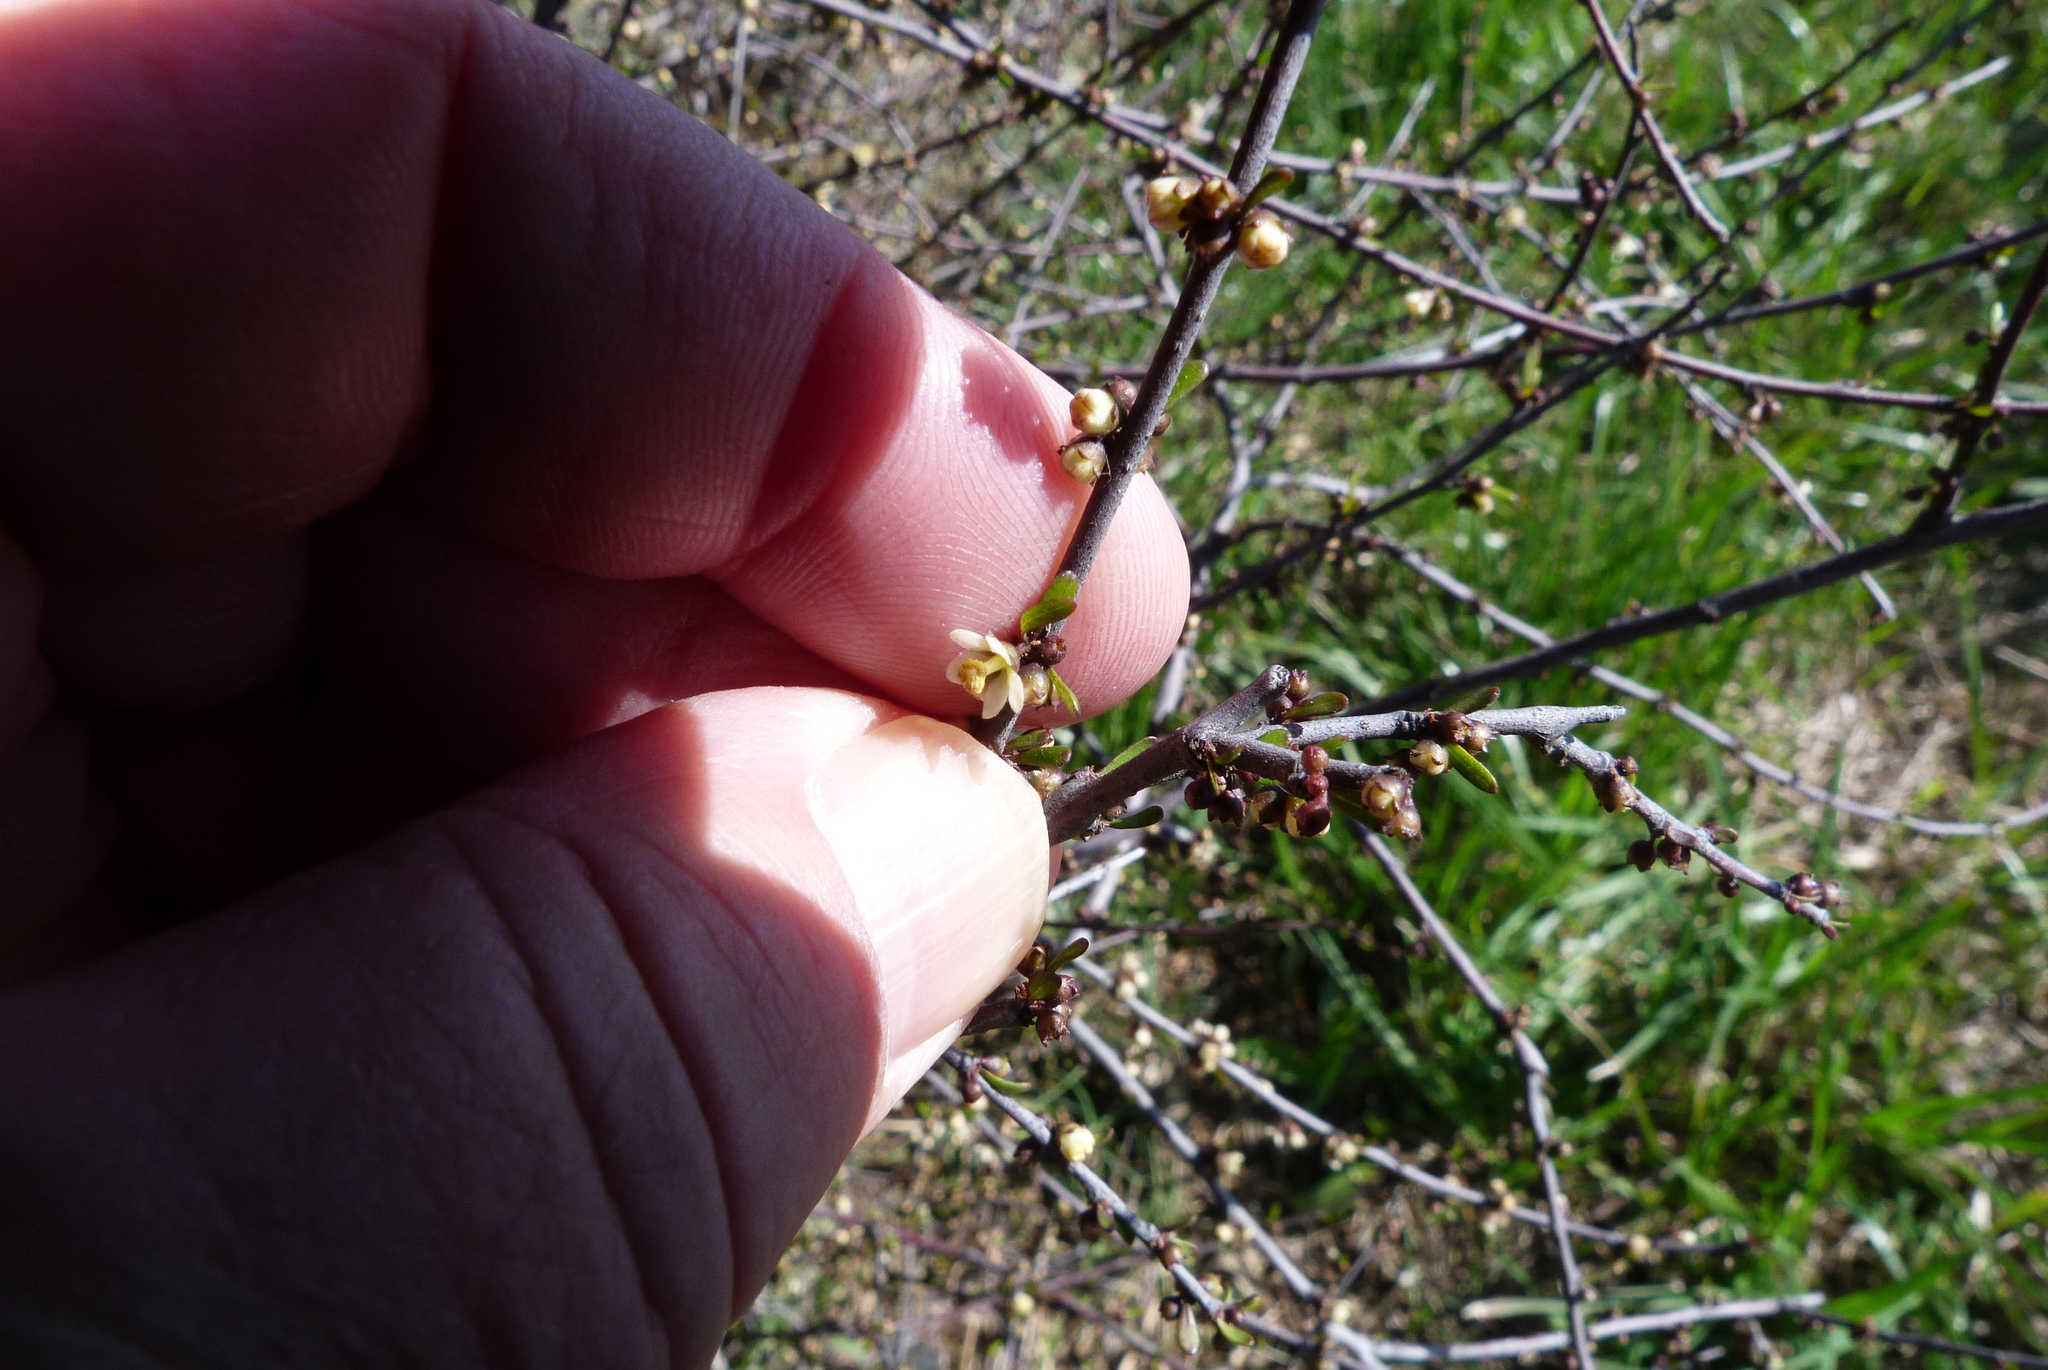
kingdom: Plantae
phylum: Tracheophyta
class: Magnoliopsida
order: Malvales
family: Malvaceae
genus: Plagianthus
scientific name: Plagianthus divaricatus
